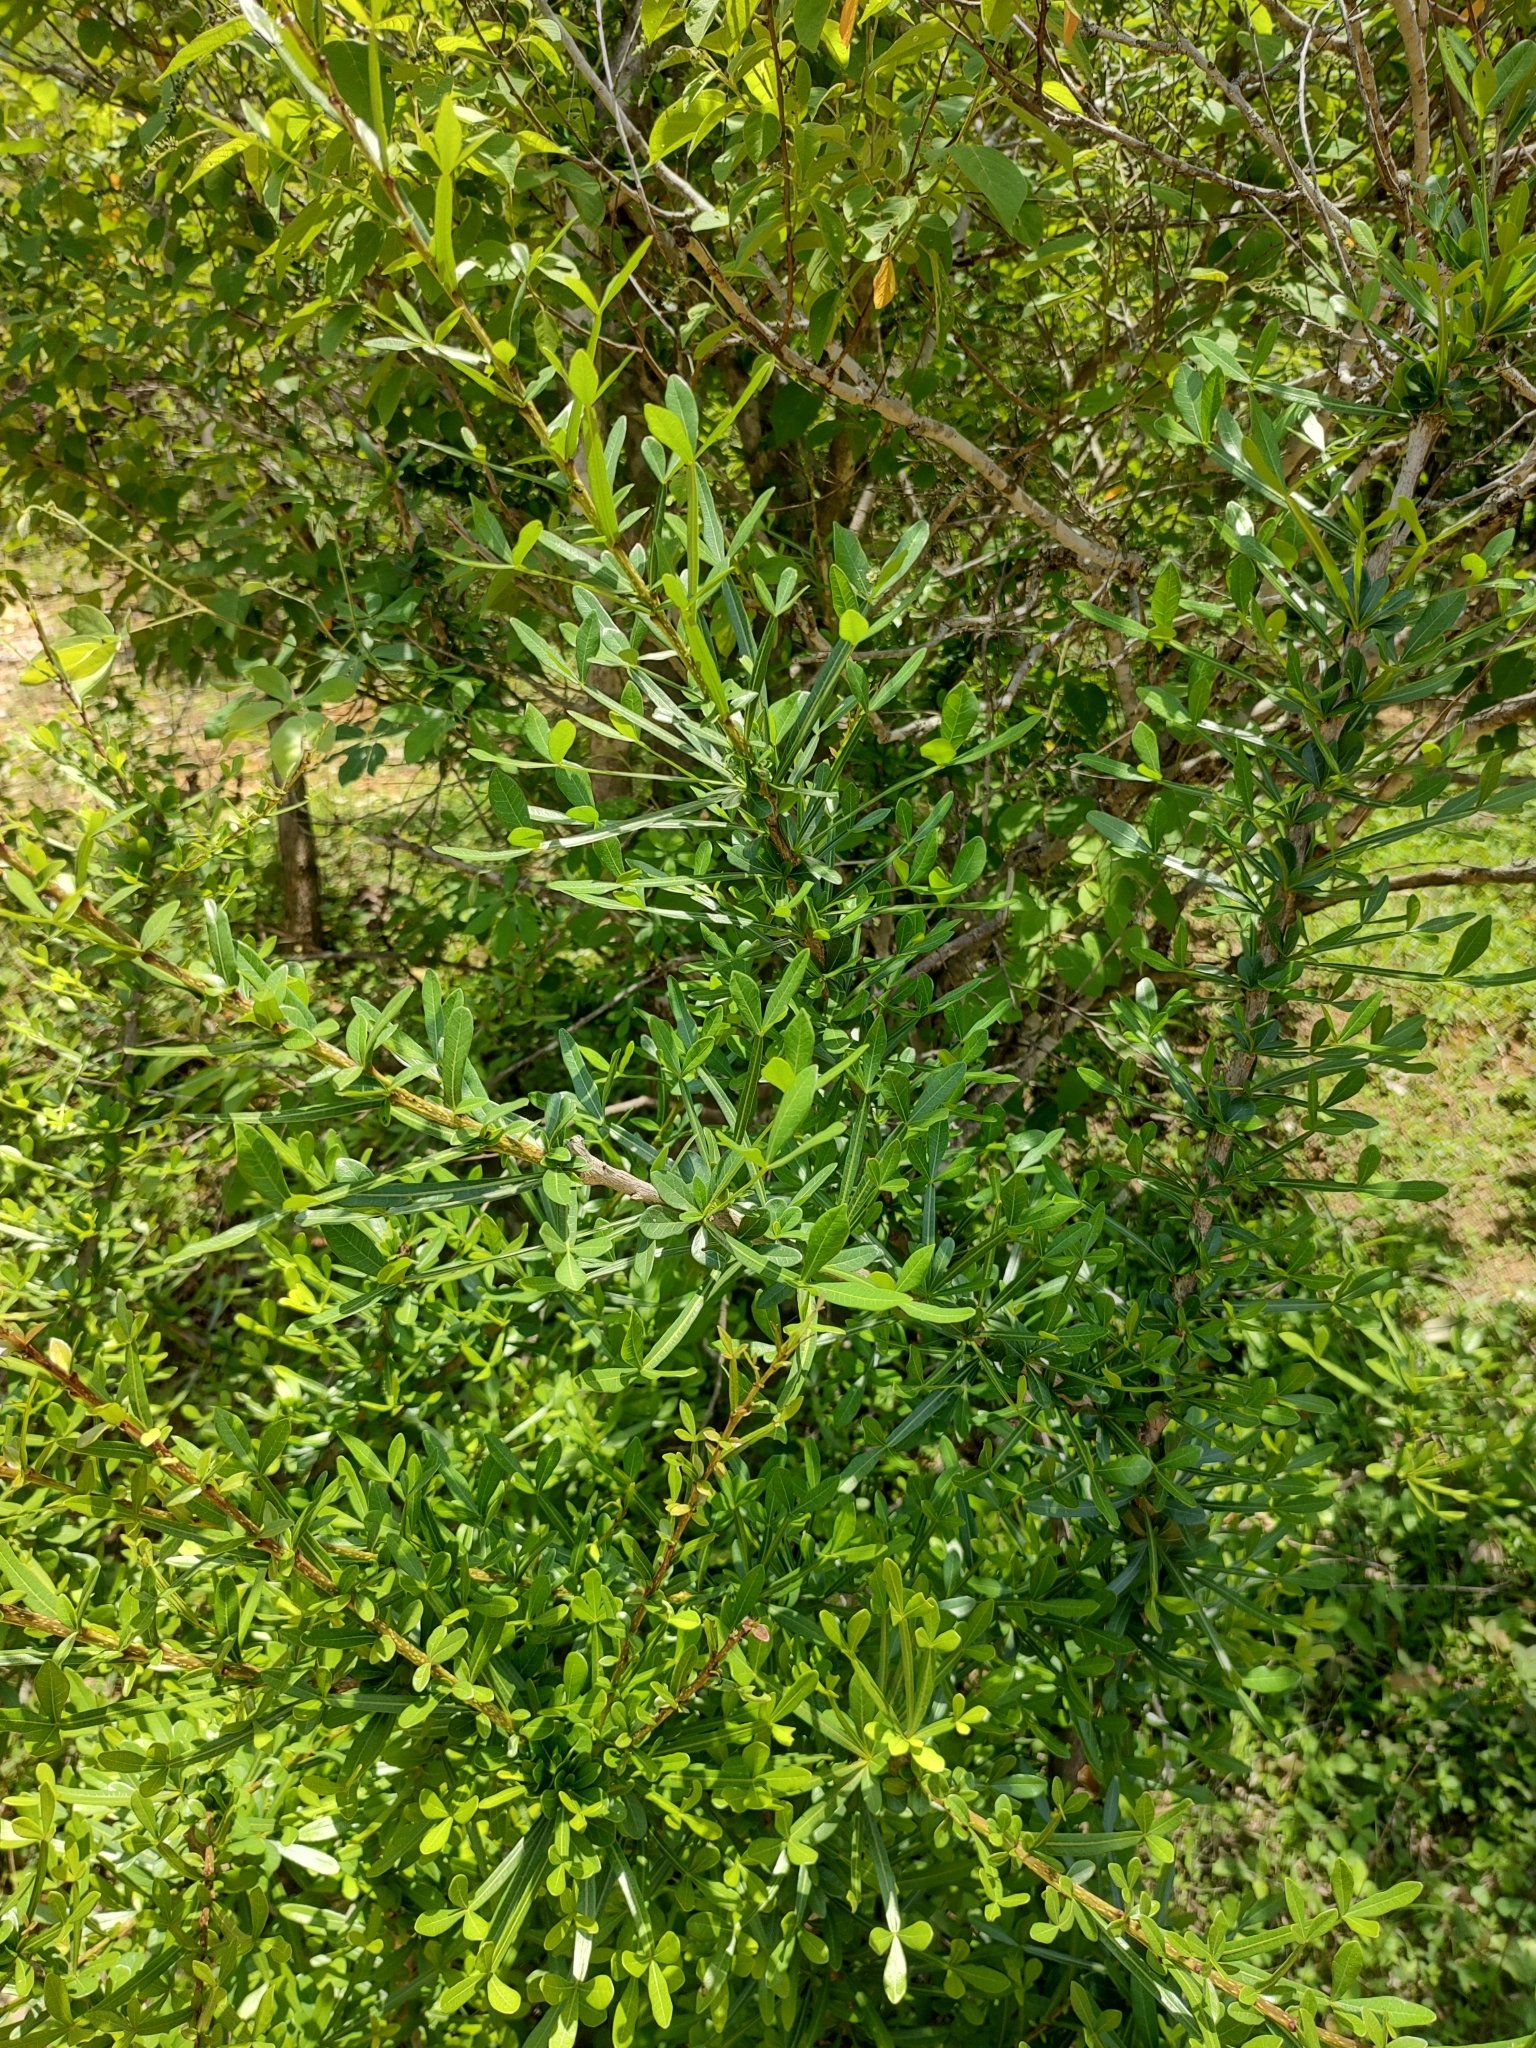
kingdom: Plantae
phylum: Tracheophyta
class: Magnoliopsida
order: Lamiales
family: Bignoniaceae
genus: Crescentia
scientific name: Crescentia alata
